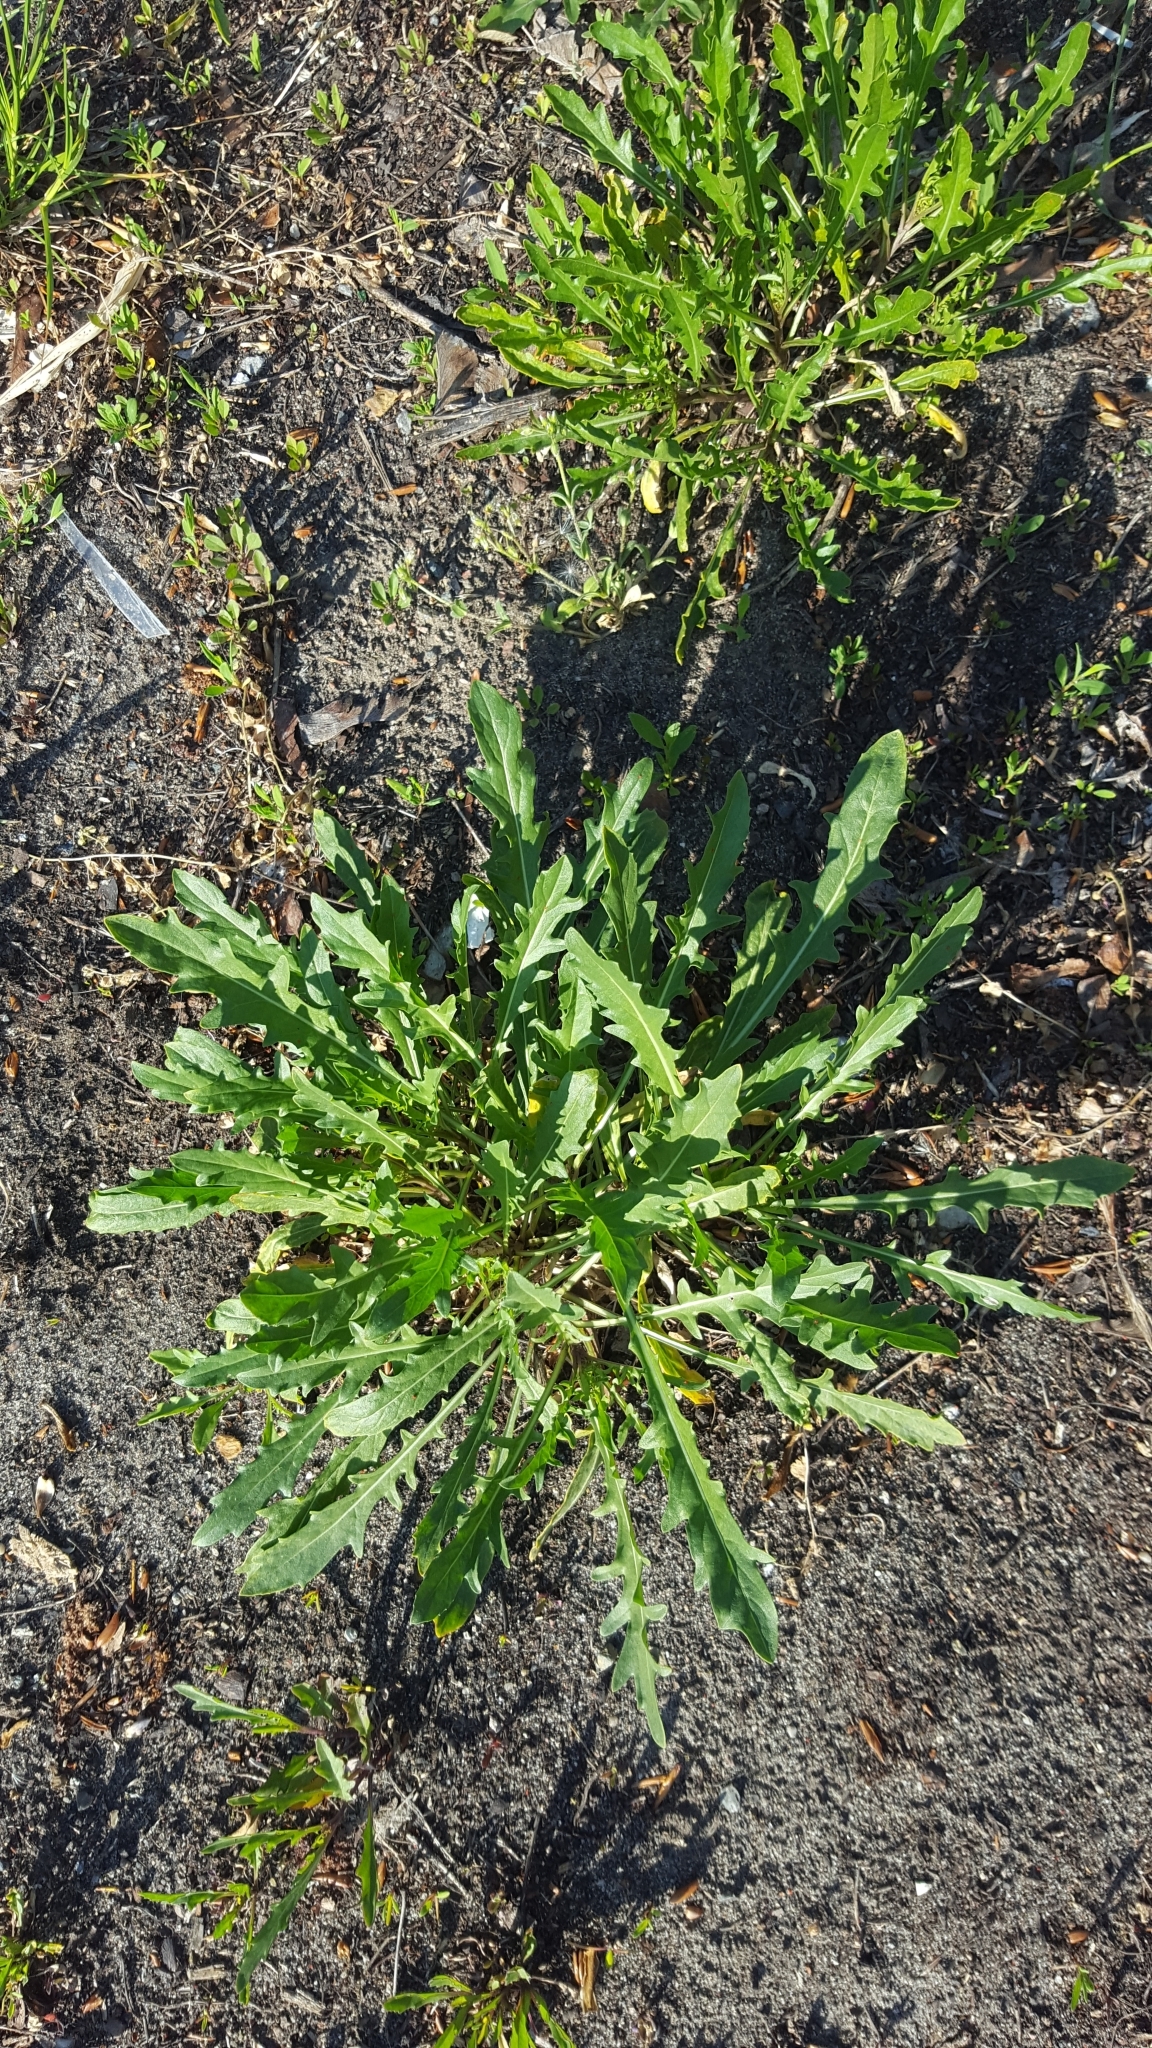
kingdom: Plantae
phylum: Tracheophyta
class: Magnoliopsida
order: Brassicales
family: Brassicaceae
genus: Diplotaxis
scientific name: Diplotaxis tenuifolia
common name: Perennial wall-rocket
